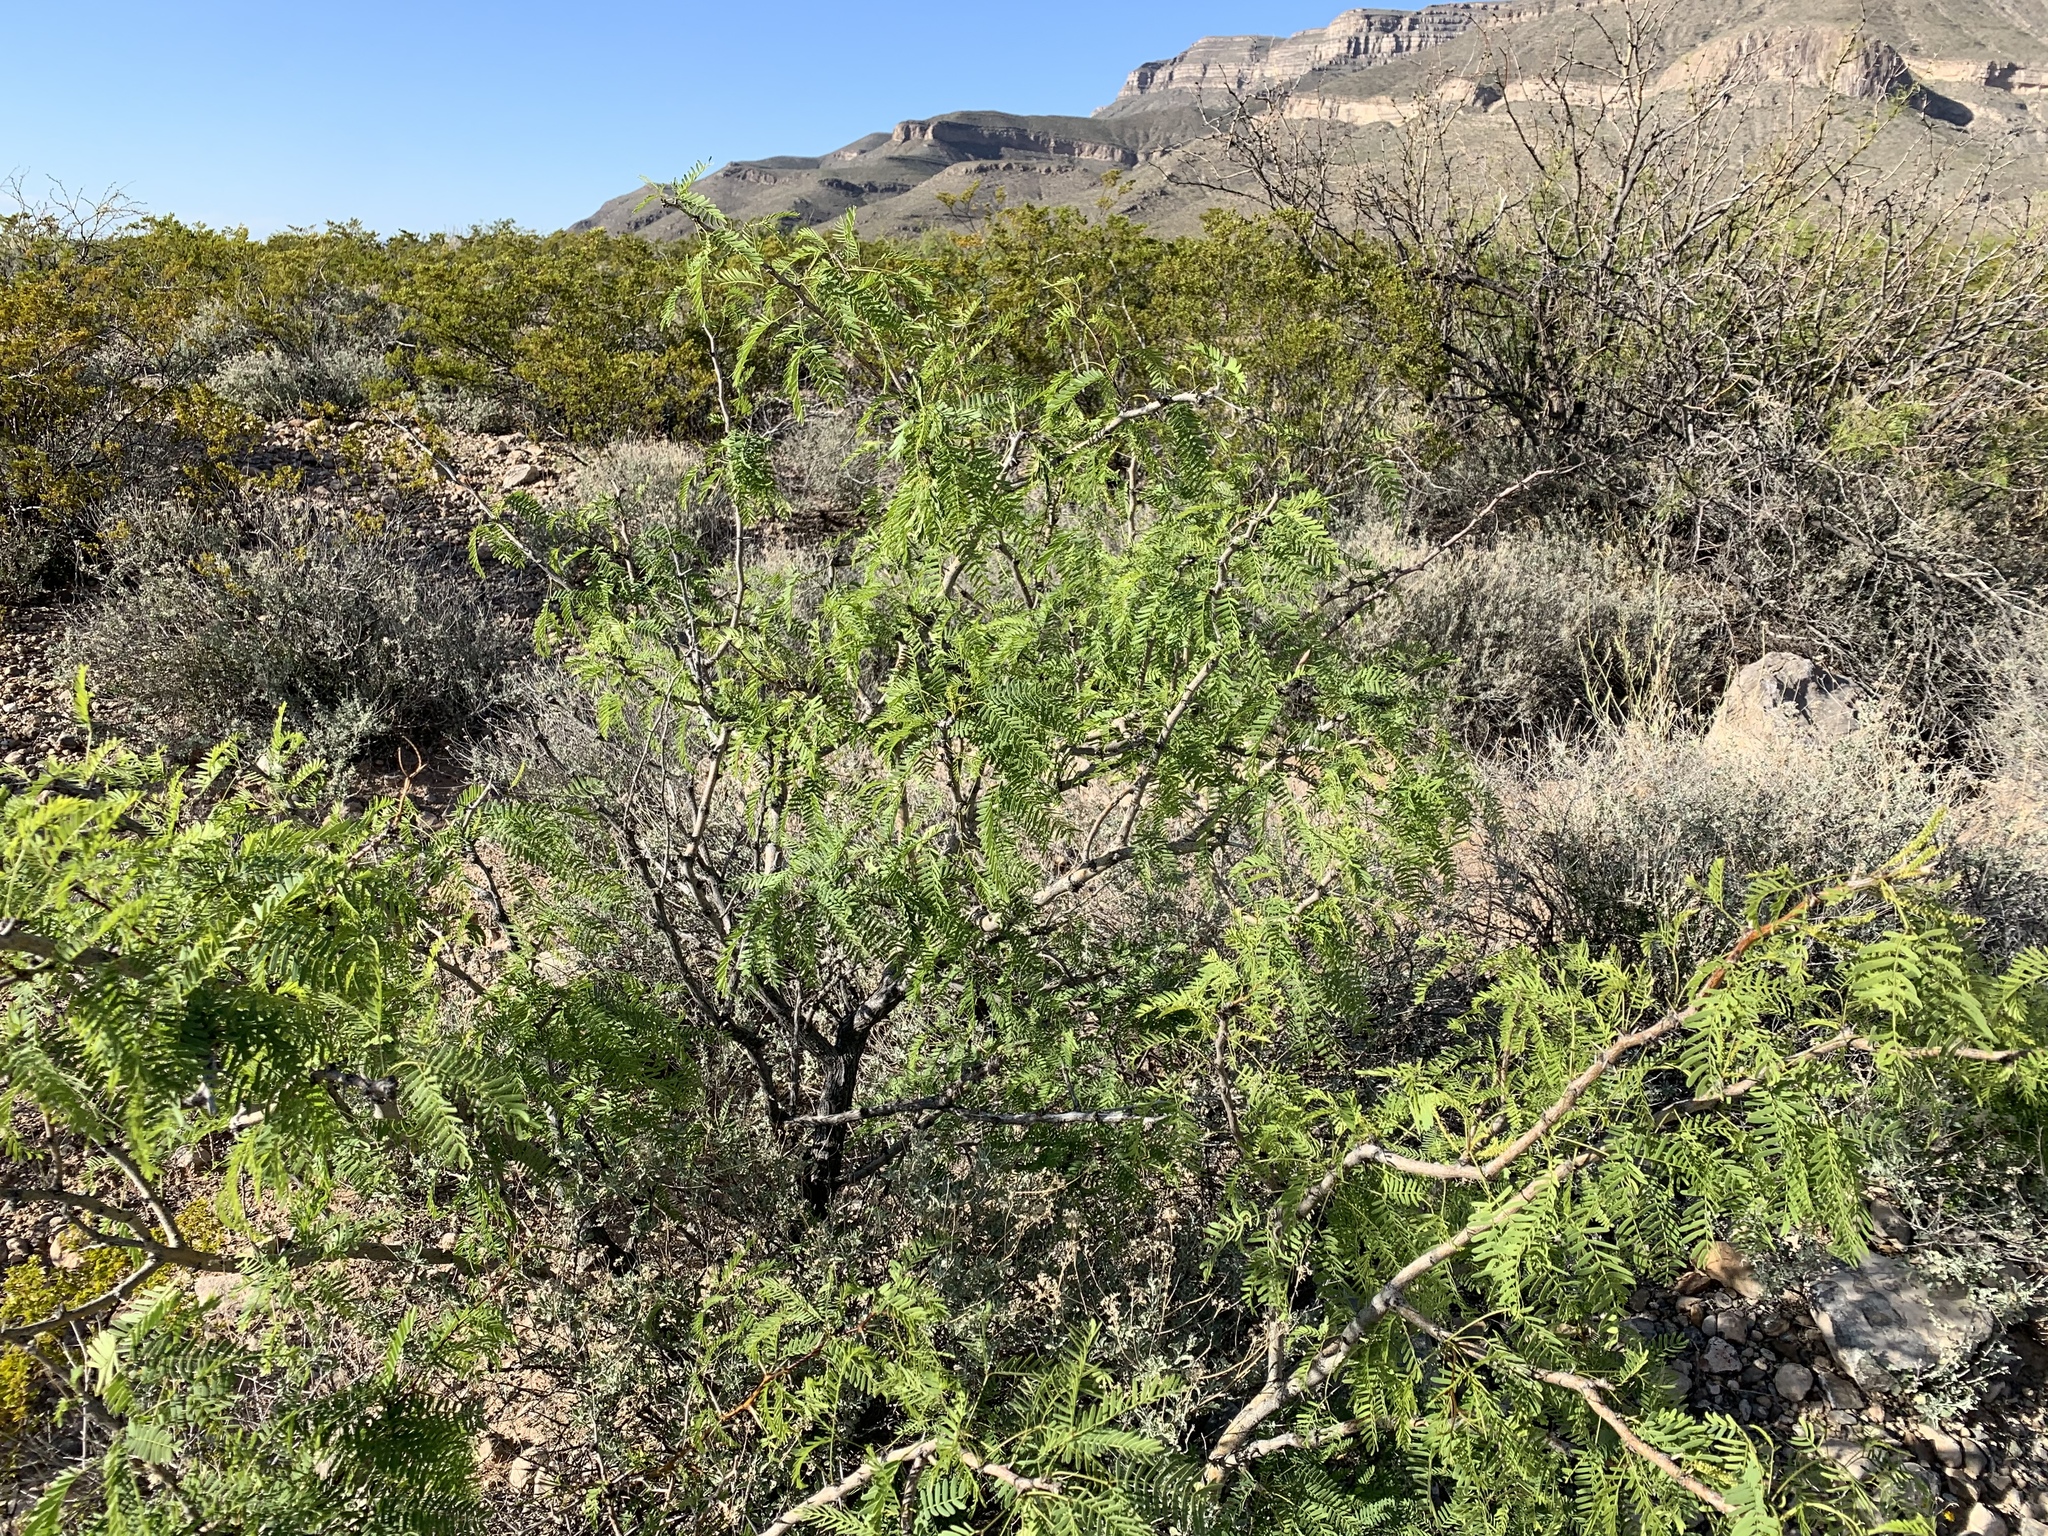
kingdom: Plantae
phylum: Tracheophyta
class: Magnoliopsida
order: Fabales
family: Fabaceae
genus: Prosopis
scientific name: Prosopis glandulosa
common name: Honey mesquite
